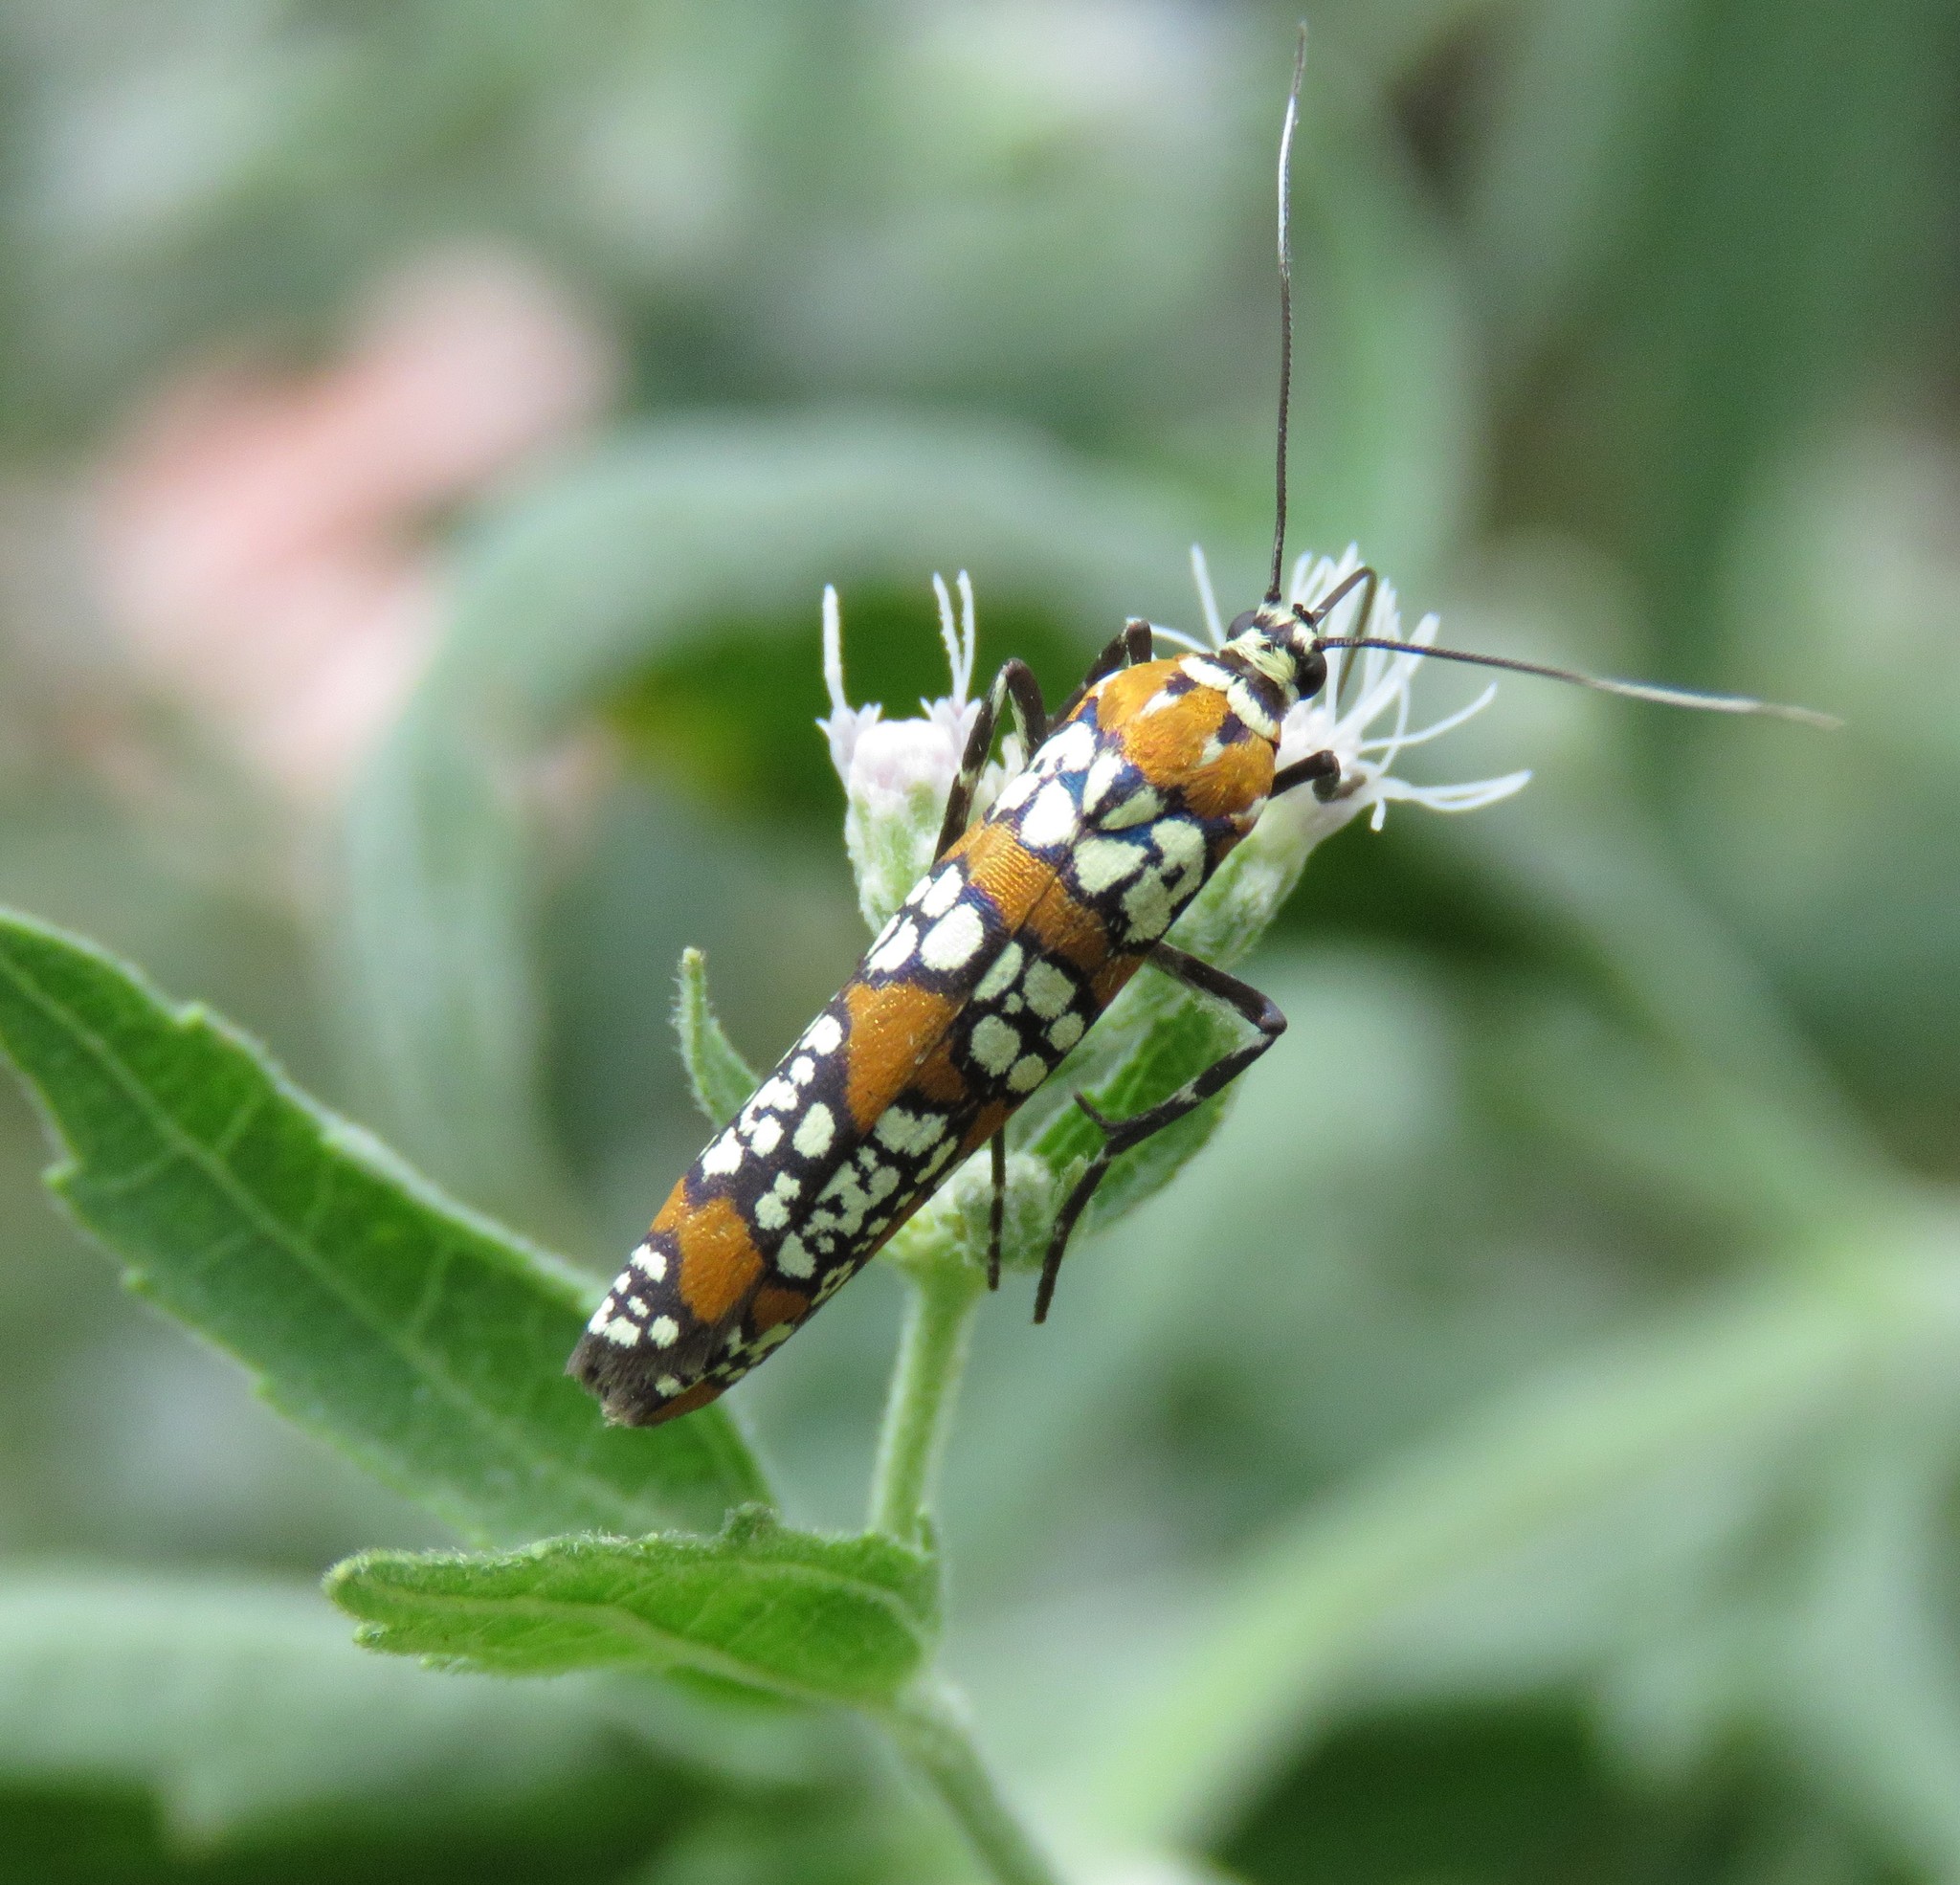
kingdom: Animalia
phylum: Arthropoda
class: Insecta
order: Lepidoptera
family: Attevidae
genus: Atteva
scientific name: Atteva punctella
